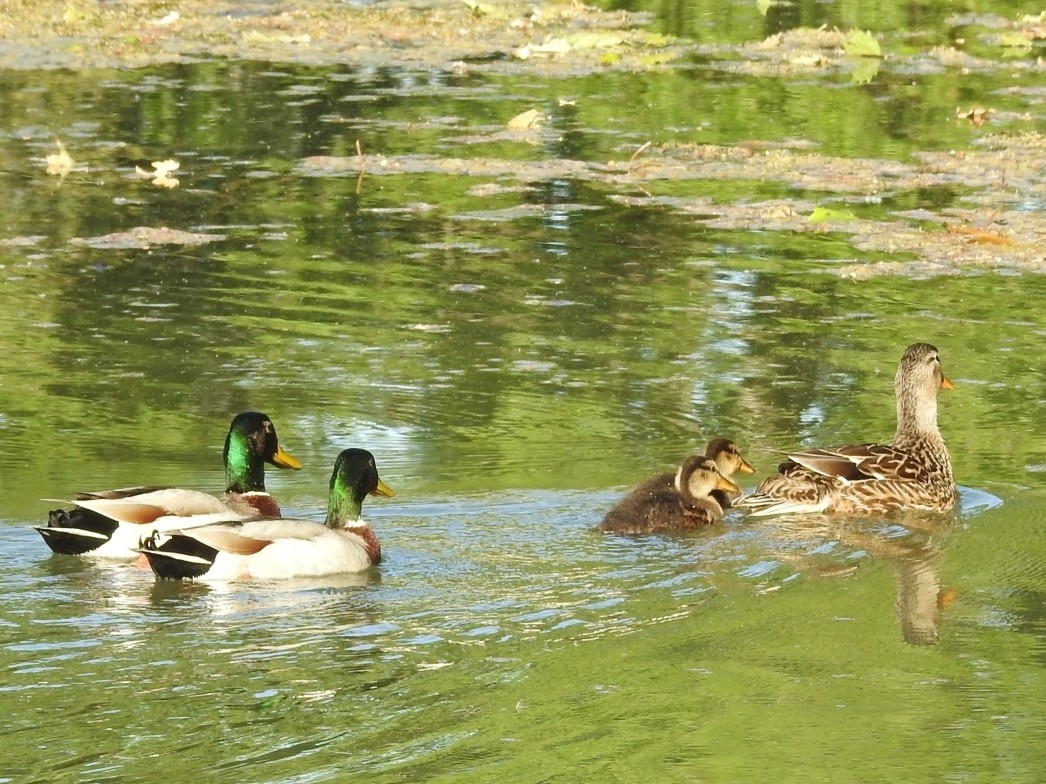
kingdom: Animalia
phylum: Chordata
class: Aves
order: Anseriformes
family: Anatidae
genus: Anas
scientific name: Anas platyrhynchos
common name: Mallard
